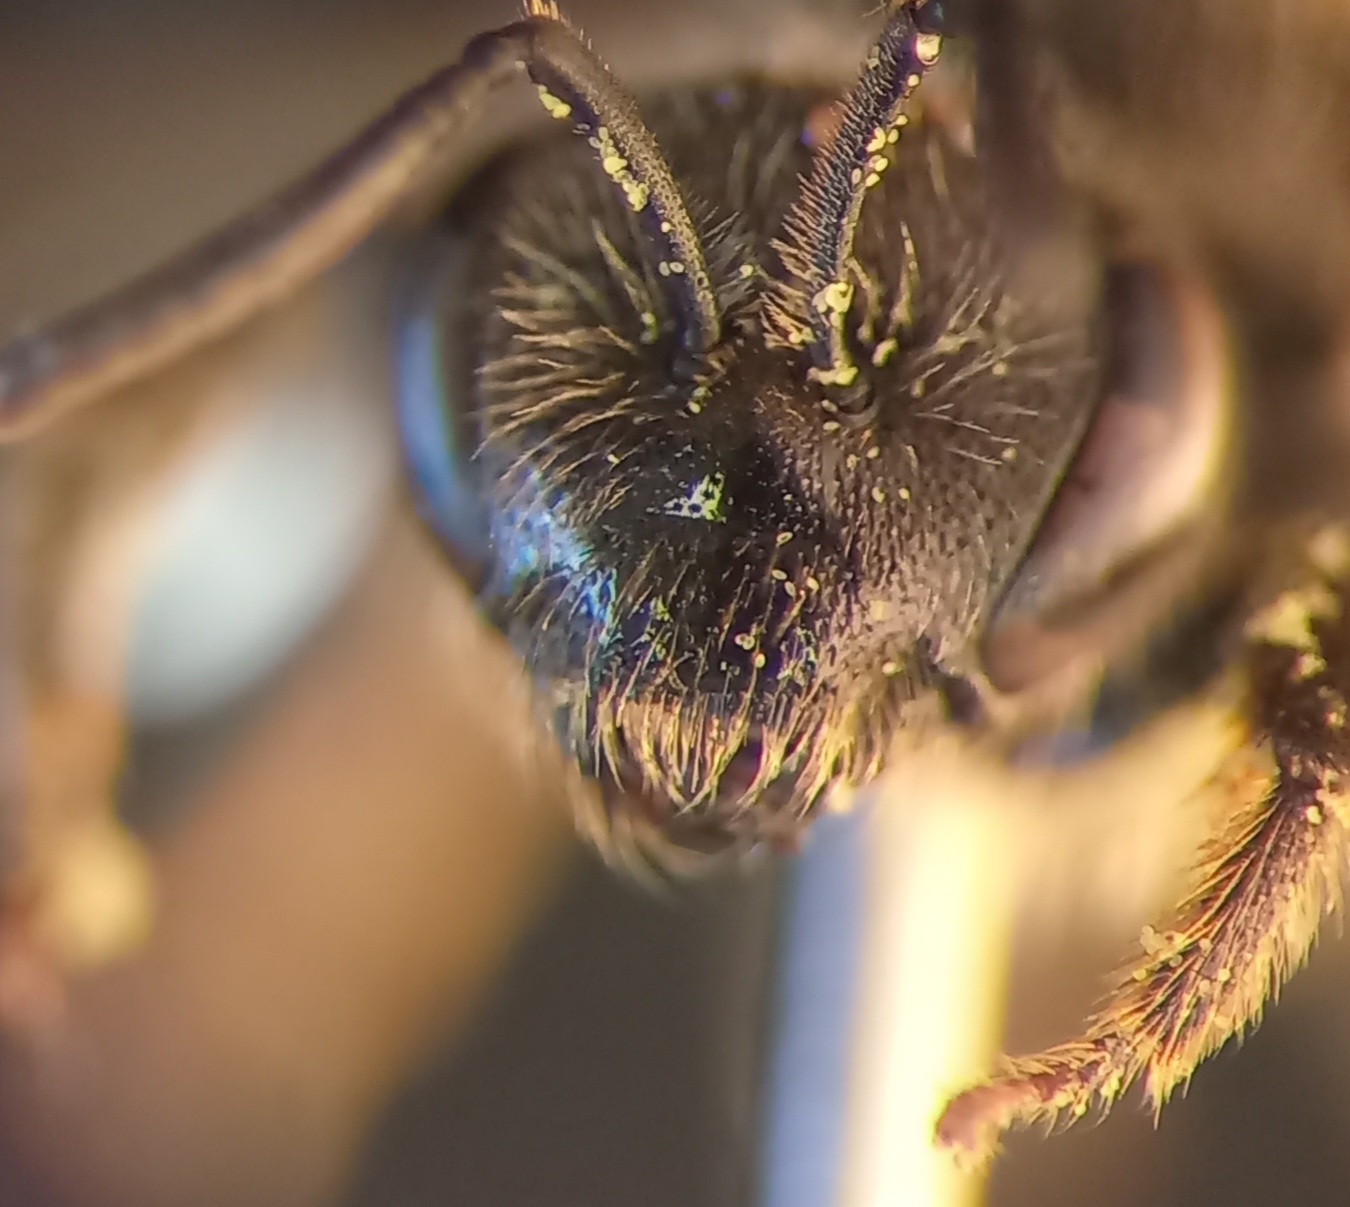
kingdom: Animalia
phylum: Arthropoda
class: Insecta
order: Hymenoptera
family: Halictidae
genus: Lasioglossum
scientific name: Lasioglossum marginatum
